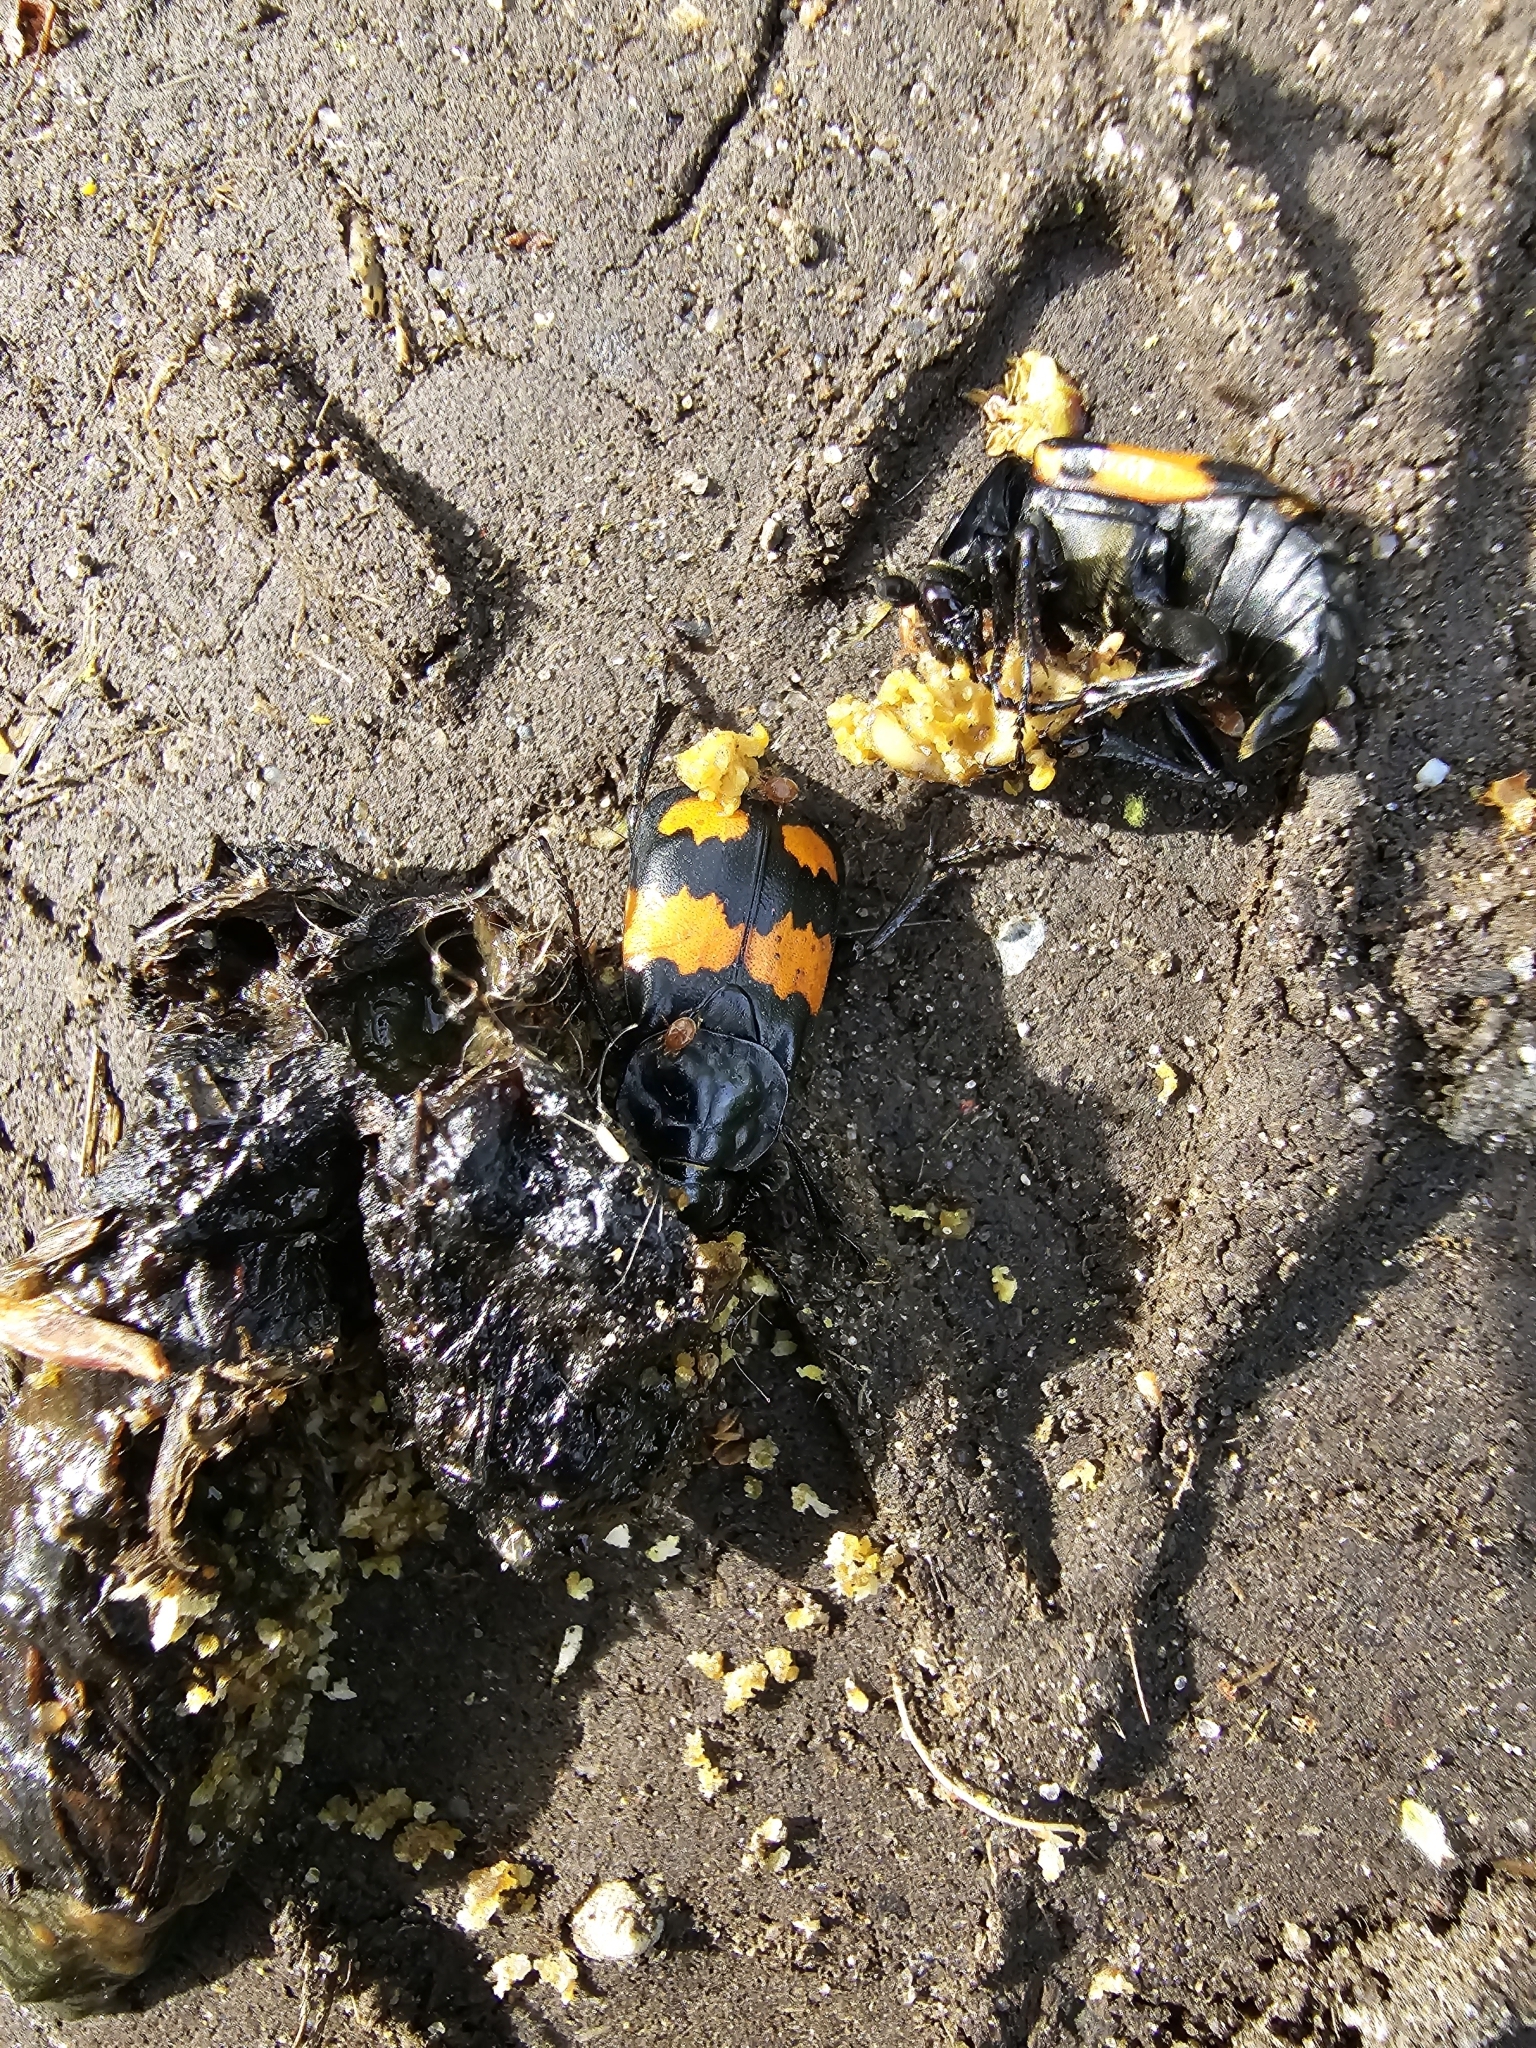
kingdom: Animalia
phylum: Arthropoda
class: Insecta
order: Coleoptera
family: Staphylinidae
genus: Nicrophorus
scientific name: Nicrophorus vespilloides
